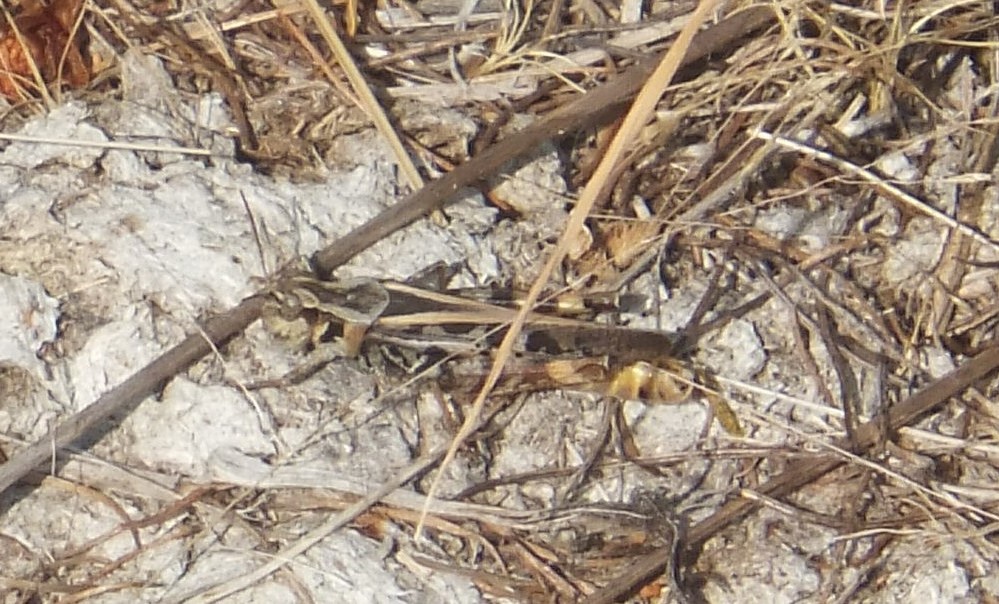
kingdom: Animalia
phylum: Arthropoda
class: Insecta
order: Orthoptera
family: Acrididae
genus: Camnula
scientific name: Camnula pellucida
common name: Clear-winged grasshopper
